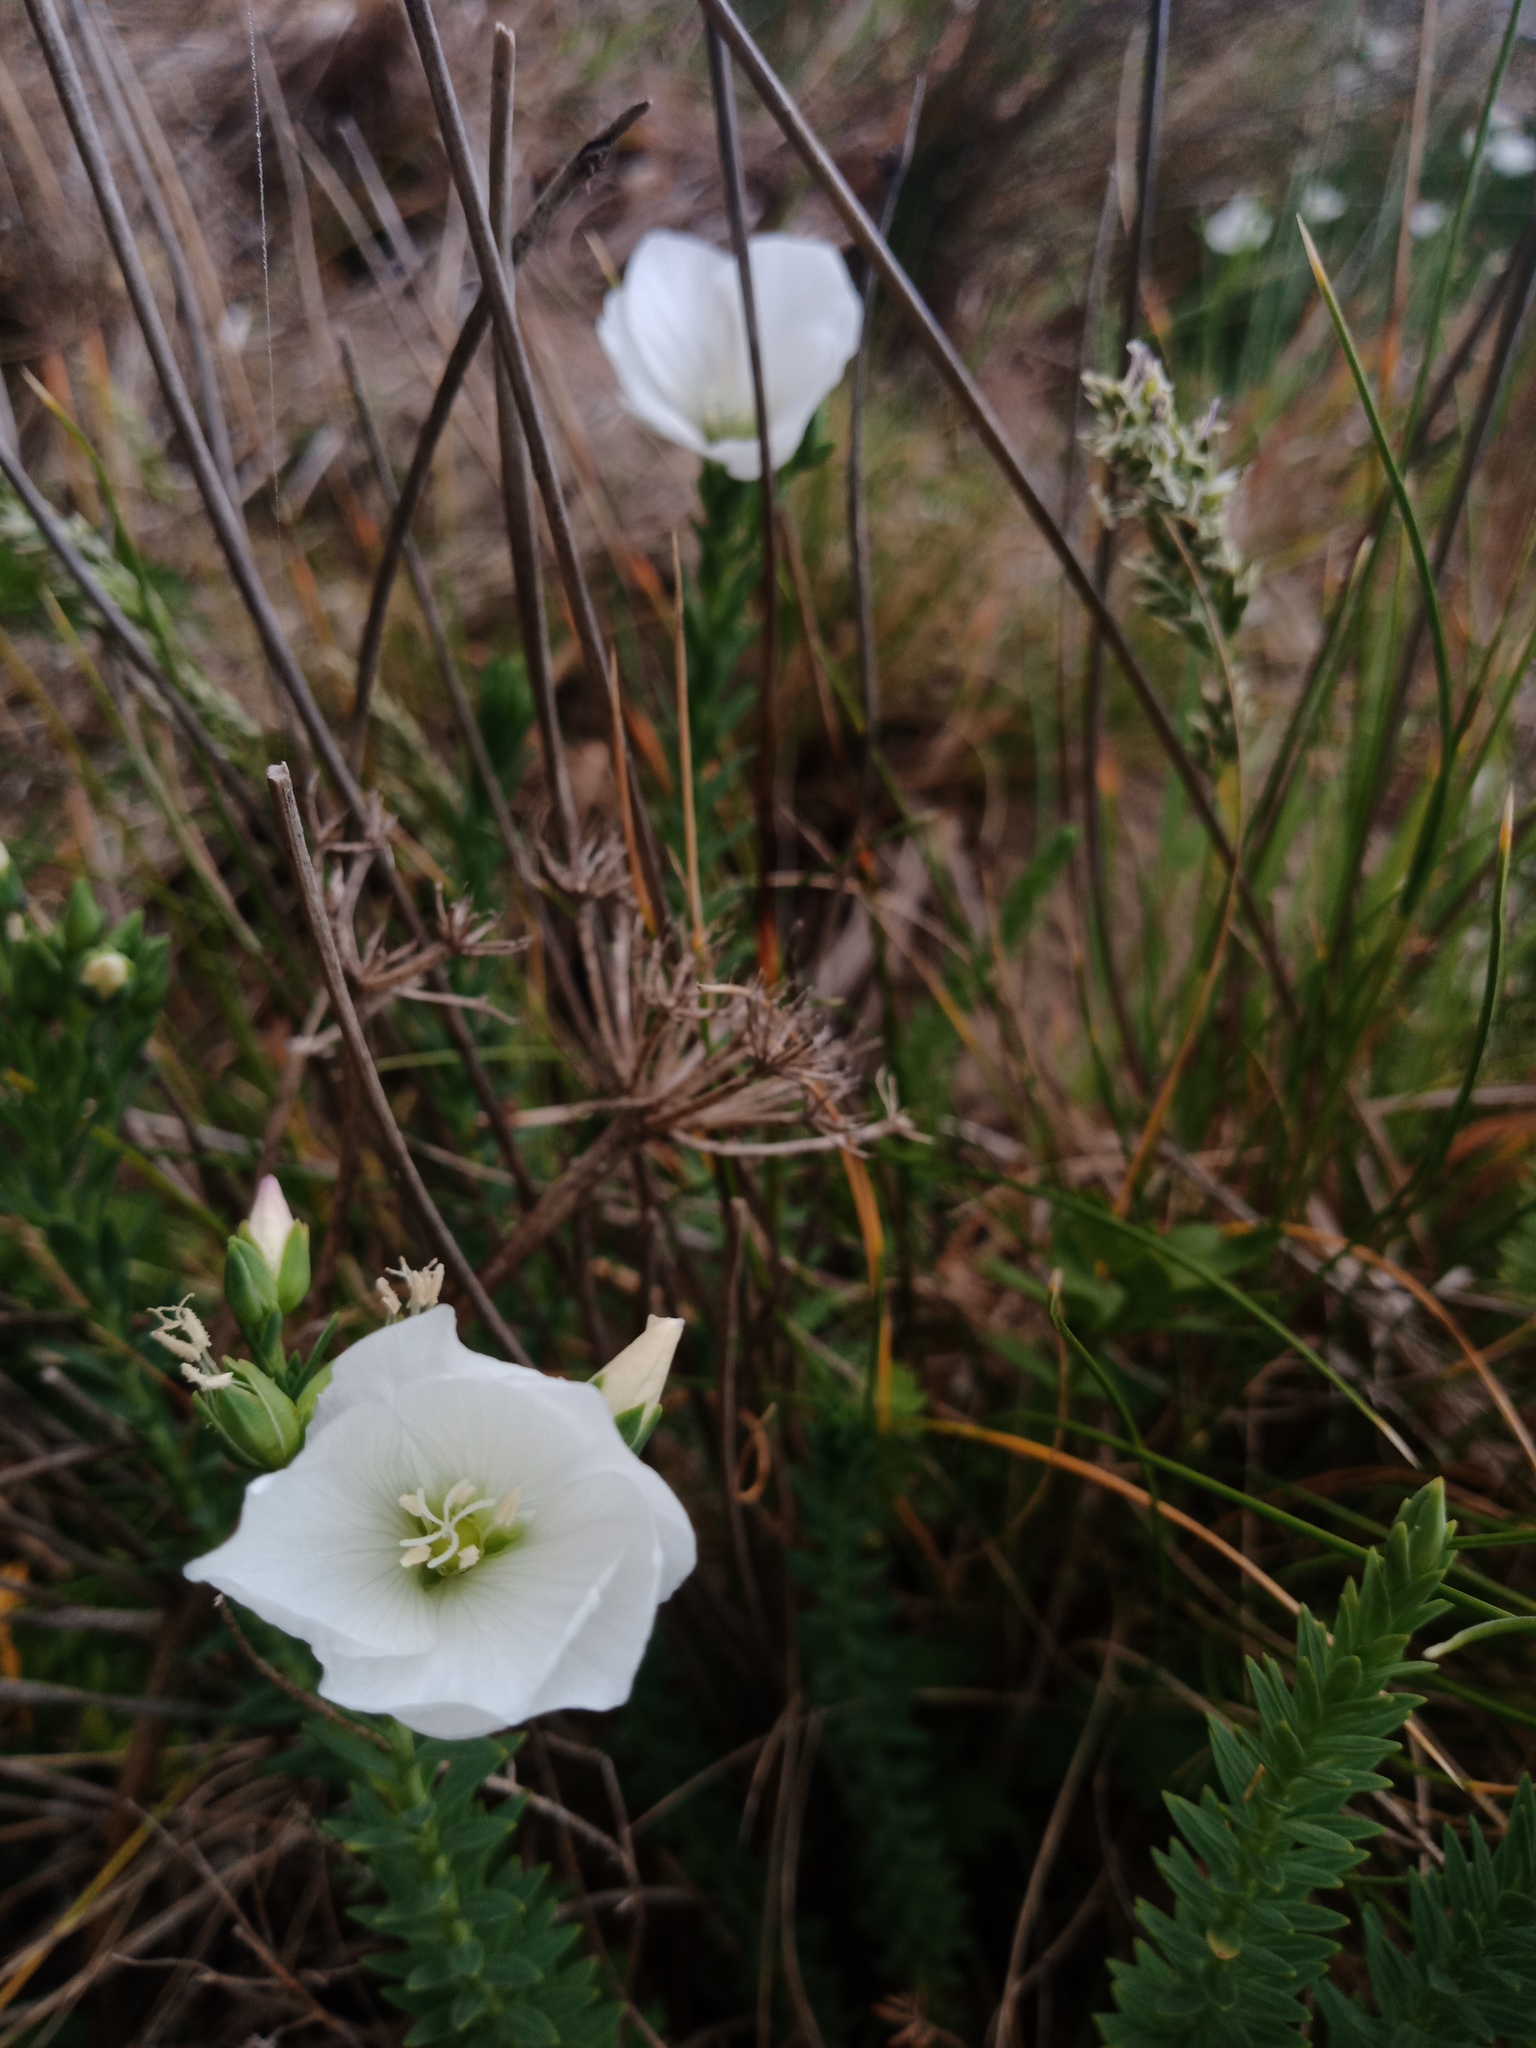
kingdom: Plantae
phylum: Tracheophyta
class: Magnoliopsida
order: Malpighiales
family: Linaceae
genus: Linum
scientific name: Linum monogynum
